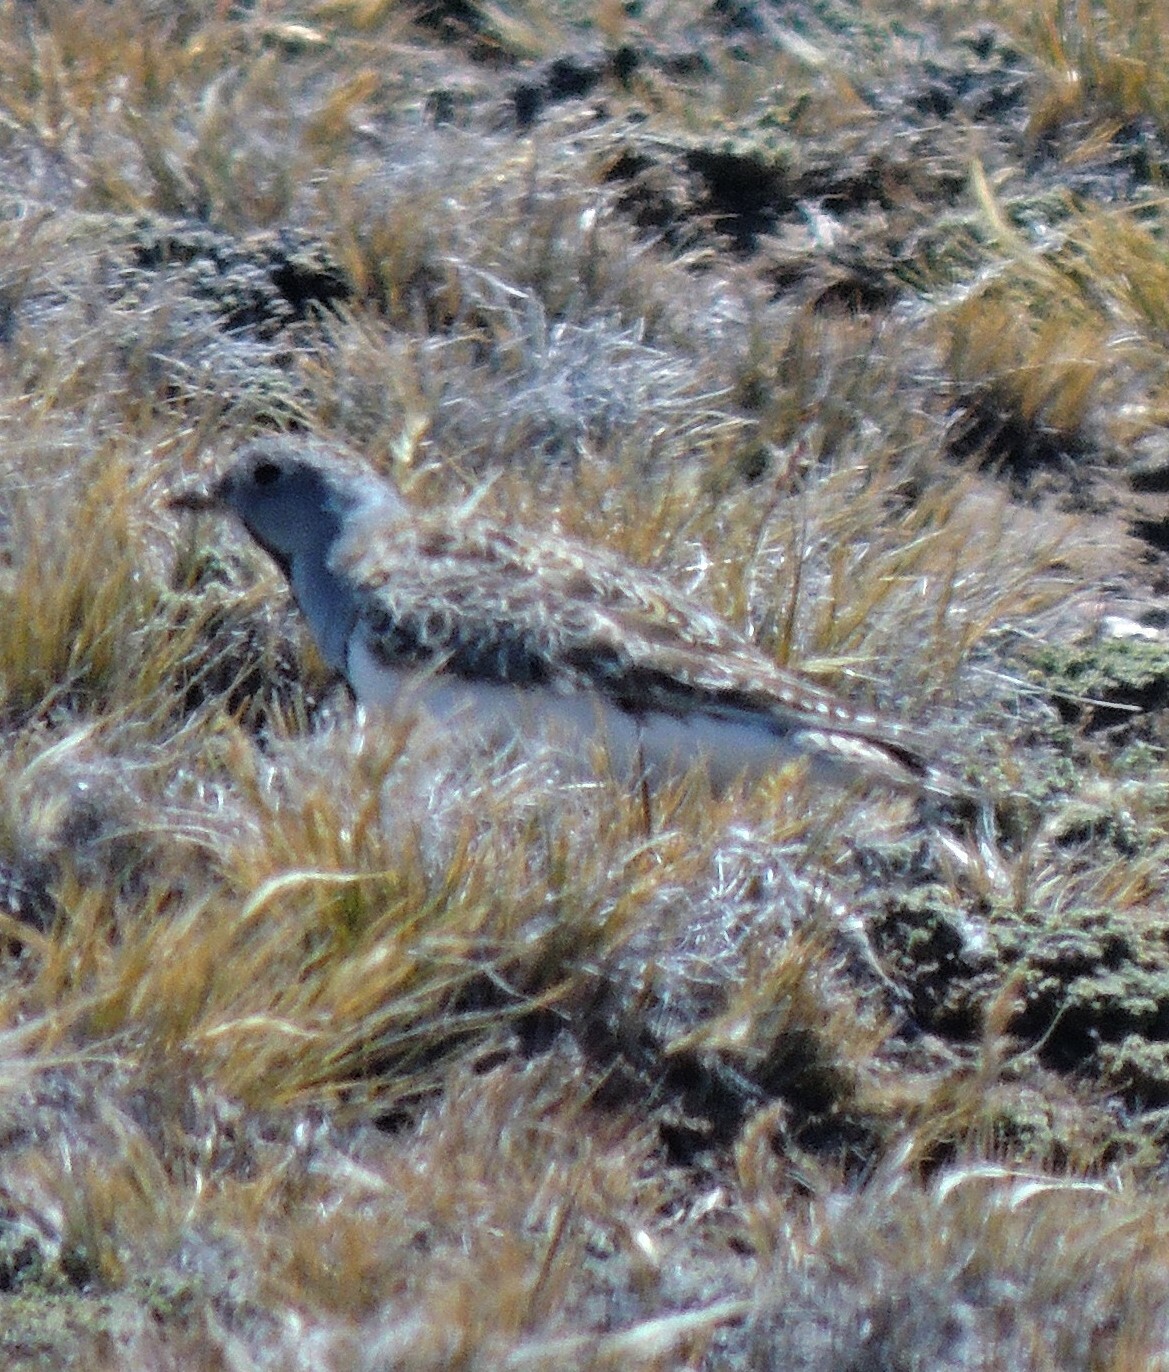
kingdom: Animalia
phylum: Chordata
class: Aves
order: Charadriiformes
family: Thinocoridae
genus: Thinocorus
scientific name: Thinocorus rumicivorus
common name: Least seedsnipe
